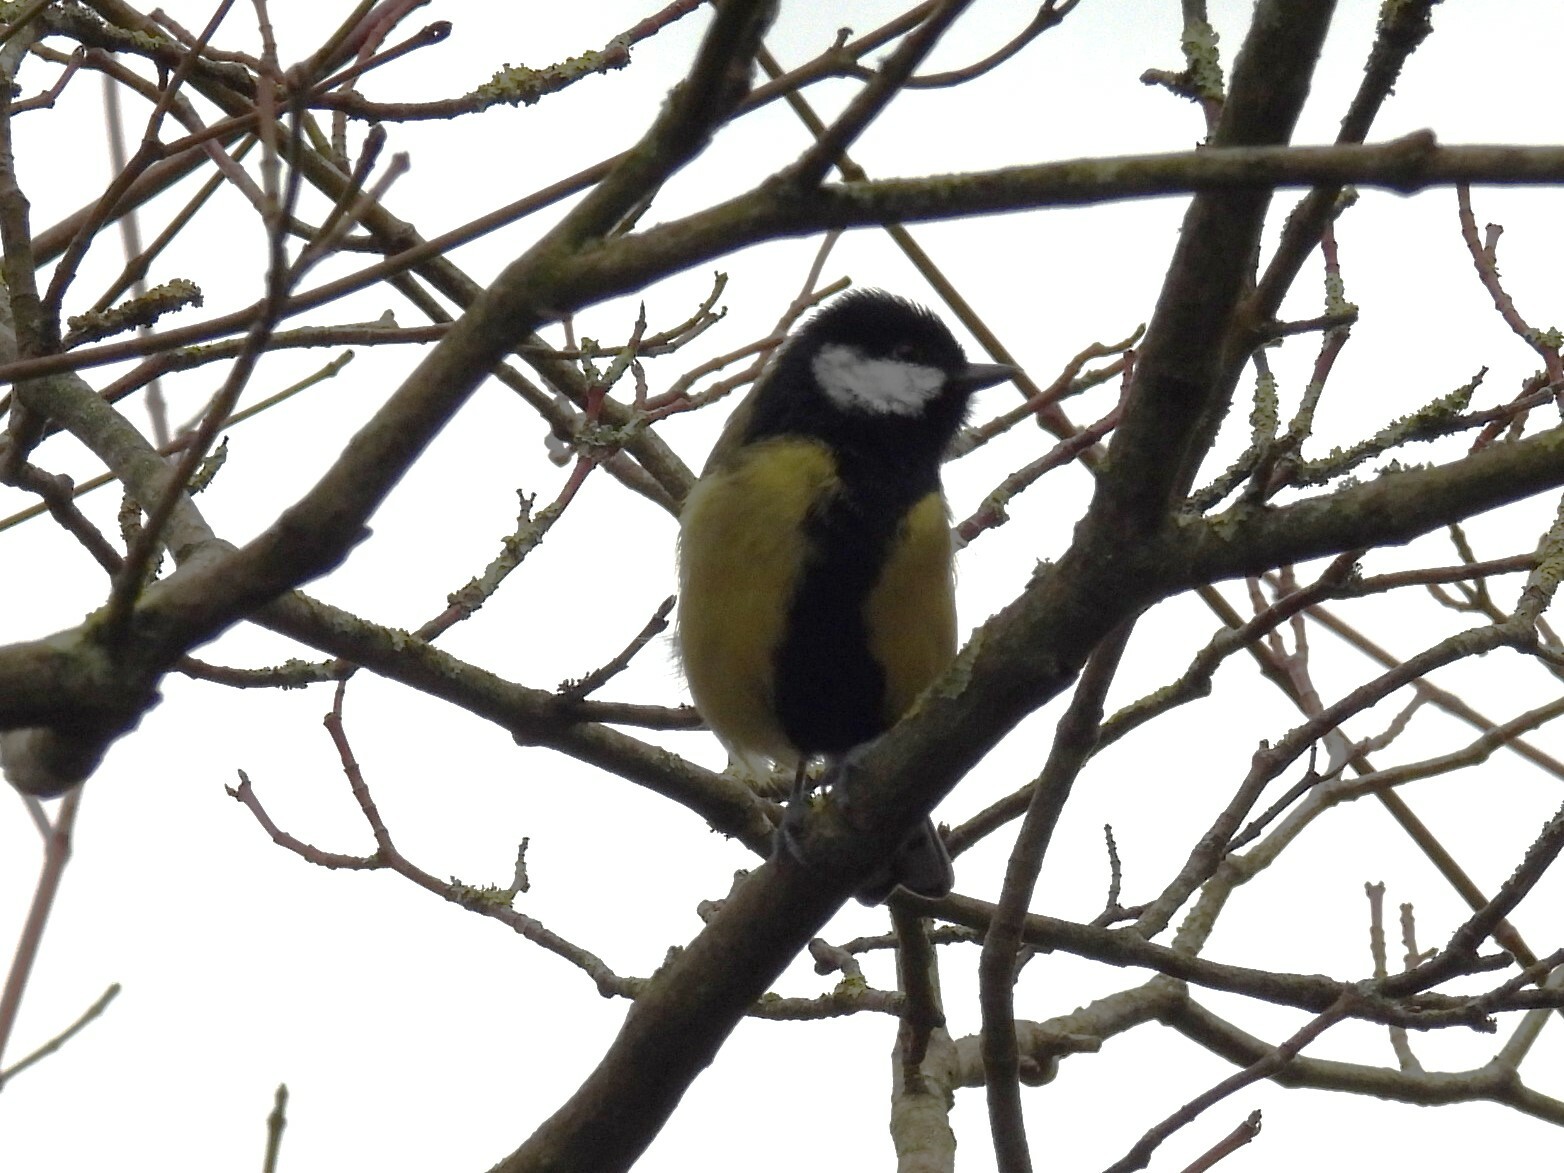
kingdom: Animalia
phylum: Chordata
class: Aves
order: Passeriformes
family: Paridae
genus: Parus
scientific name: Parus major
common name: Great tit
